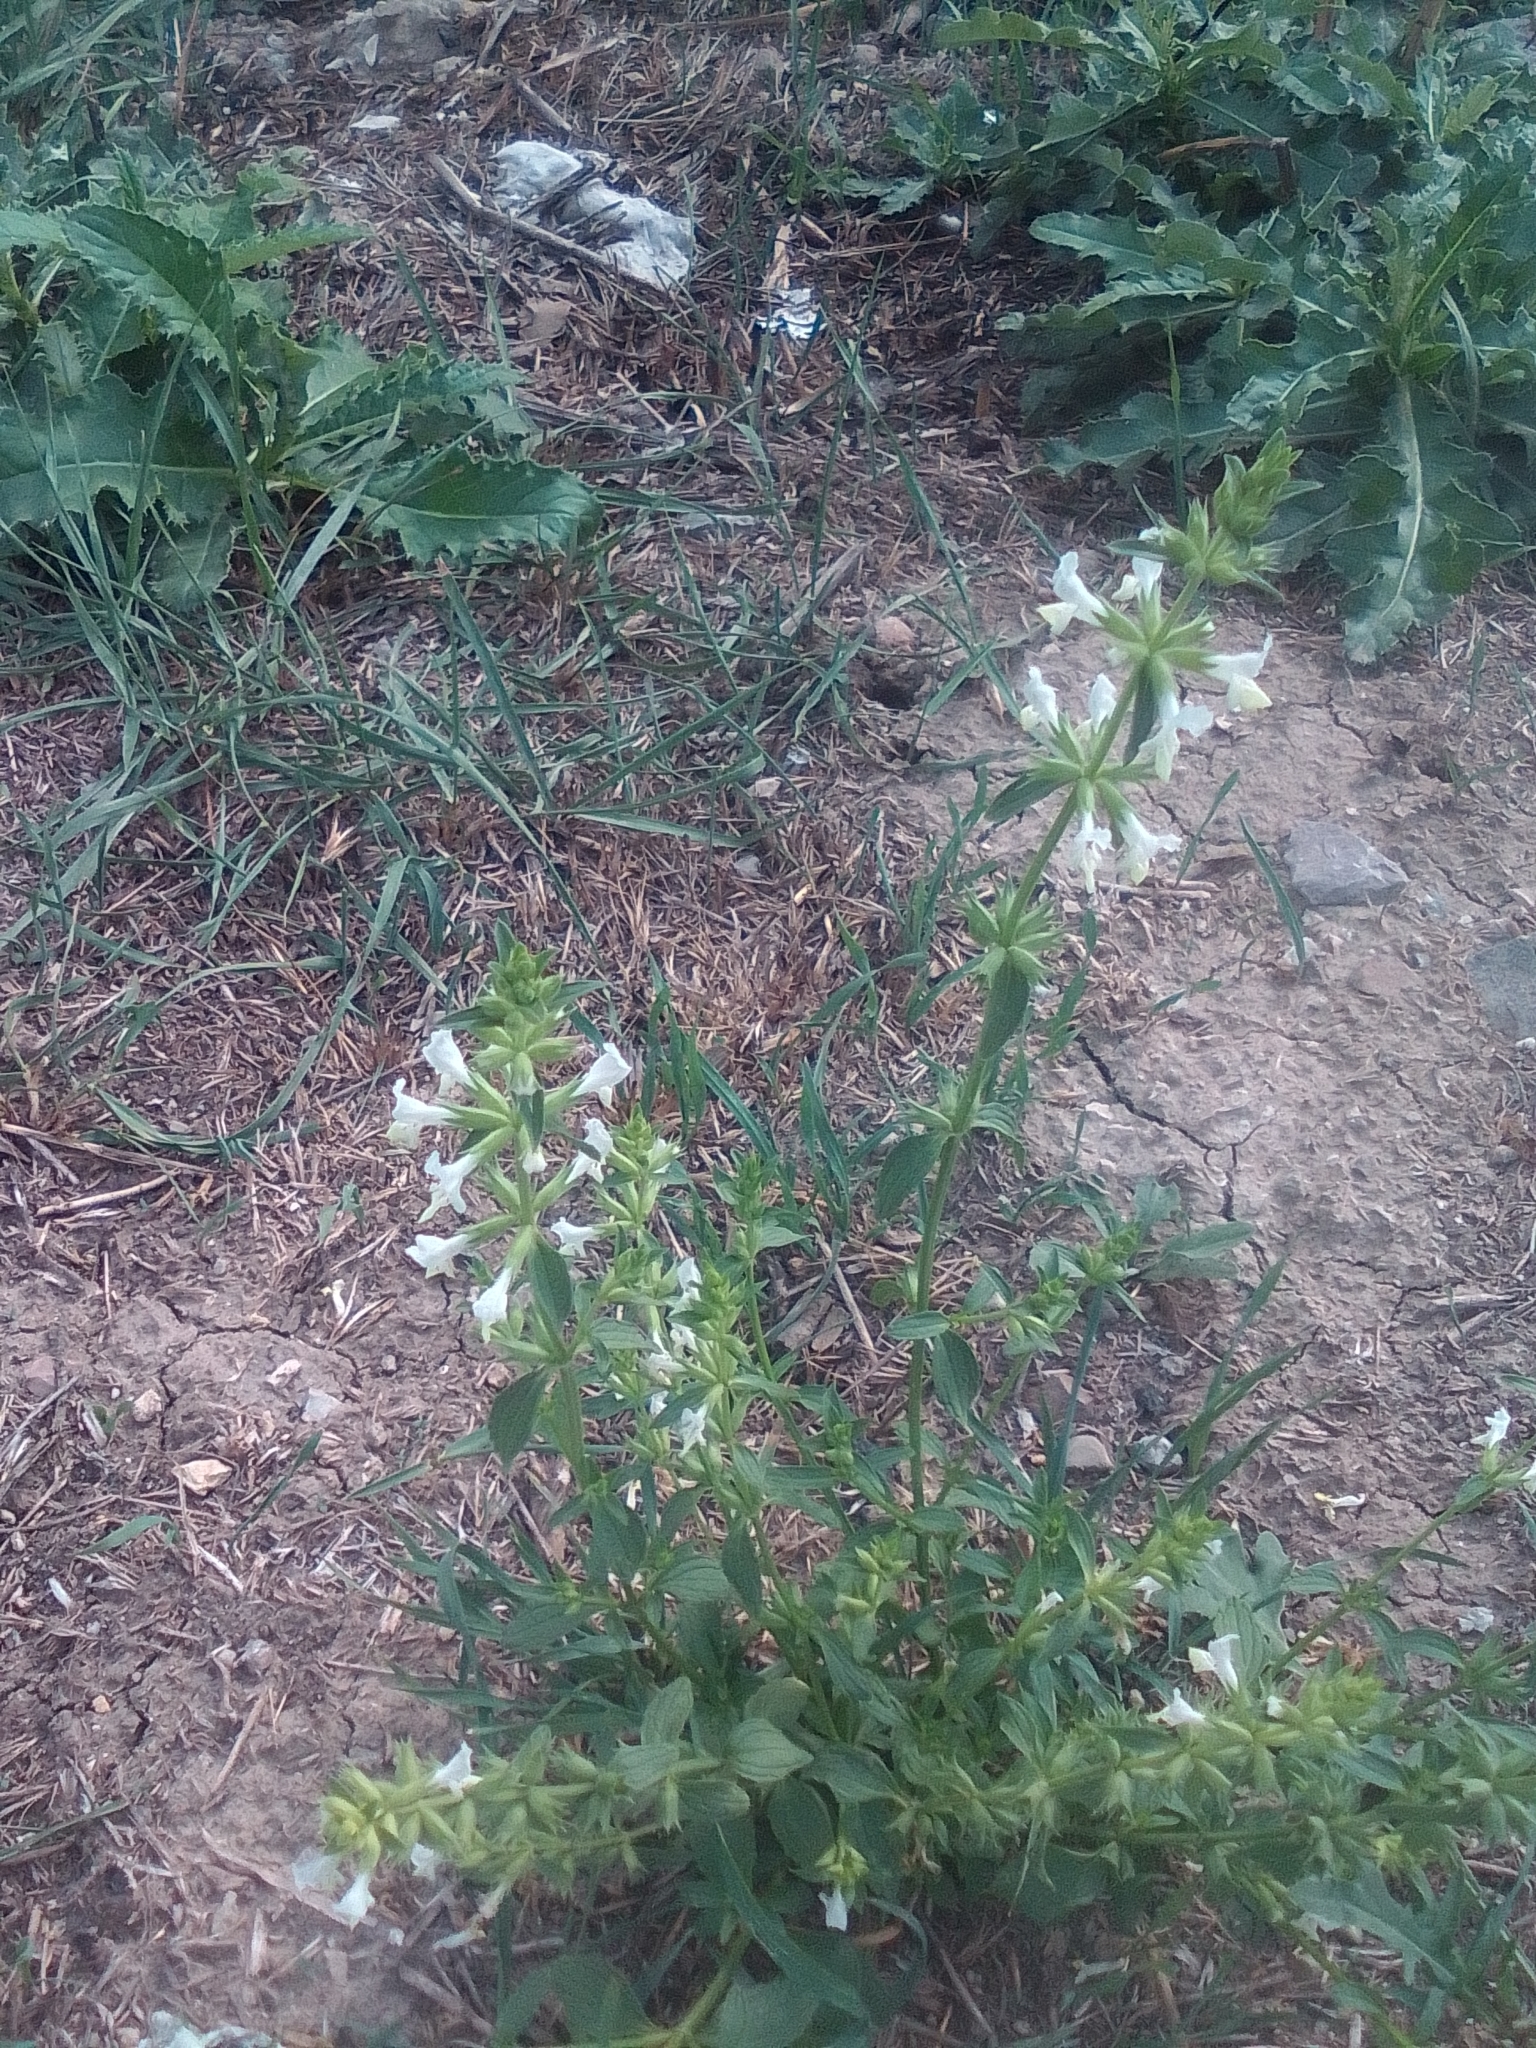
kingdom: Plantae
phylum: Tracheophyta
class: Magnoliopsida
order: Lamiales
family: Lamiaceae
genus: Stachys
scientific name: Stachys annua
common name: Annual yellow-woundwort
